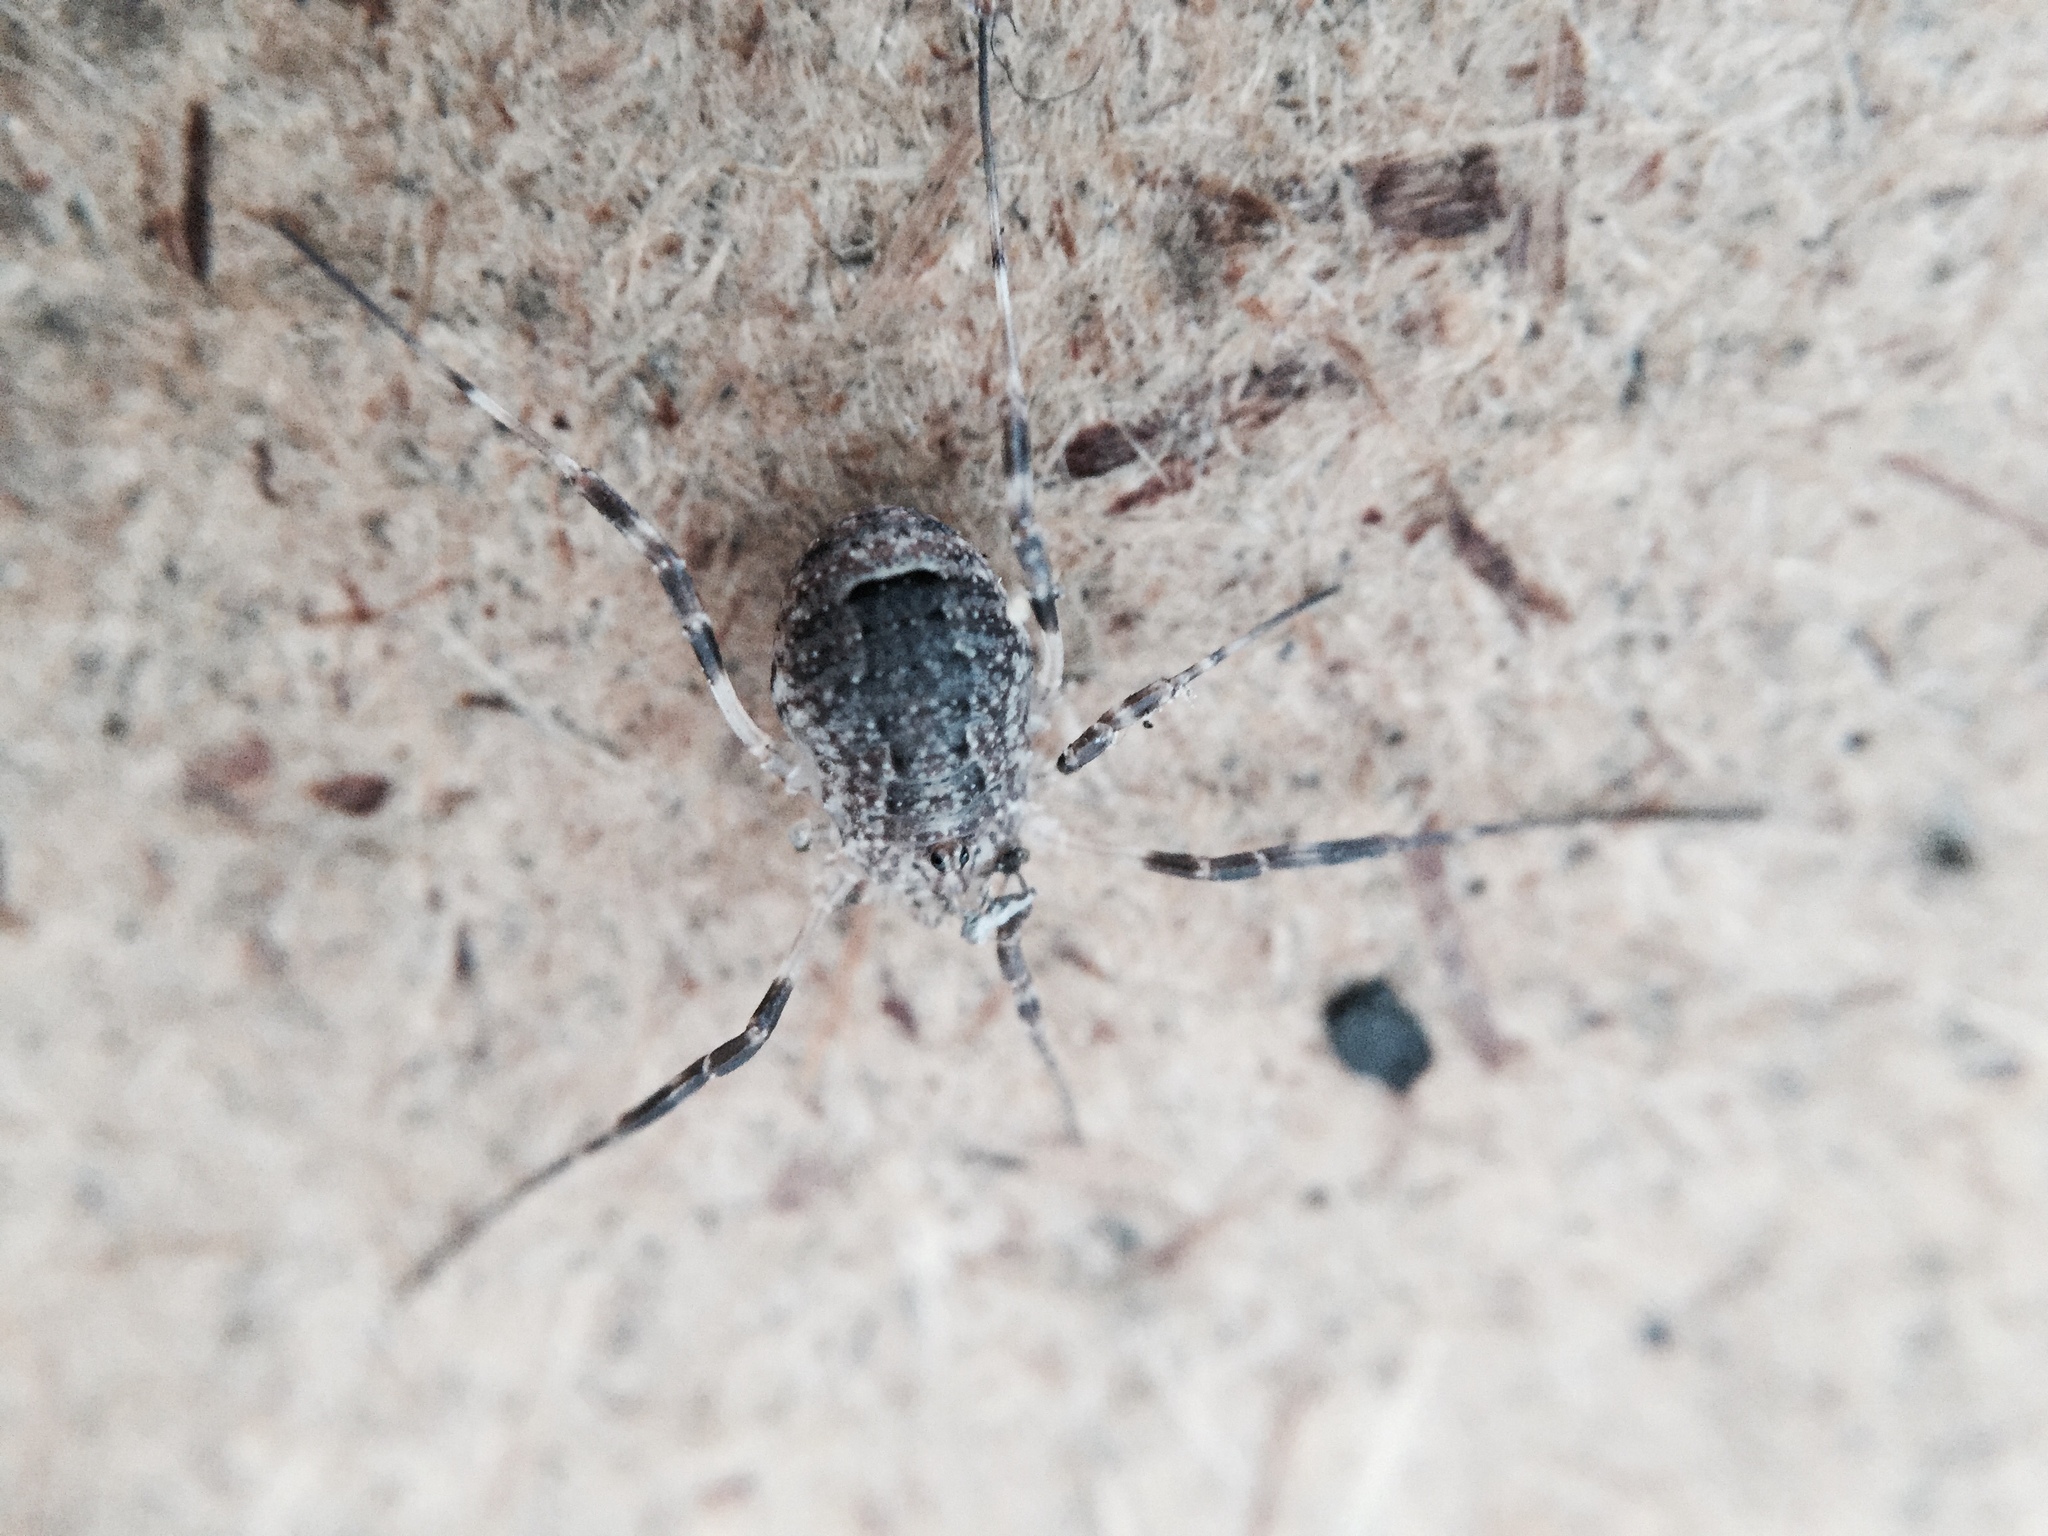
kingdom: Animalia
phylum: Arthropoda
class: Arachnida
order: Opiliones
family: Phalangiidae
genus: Odiellus
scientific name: Odiellus spinosus
